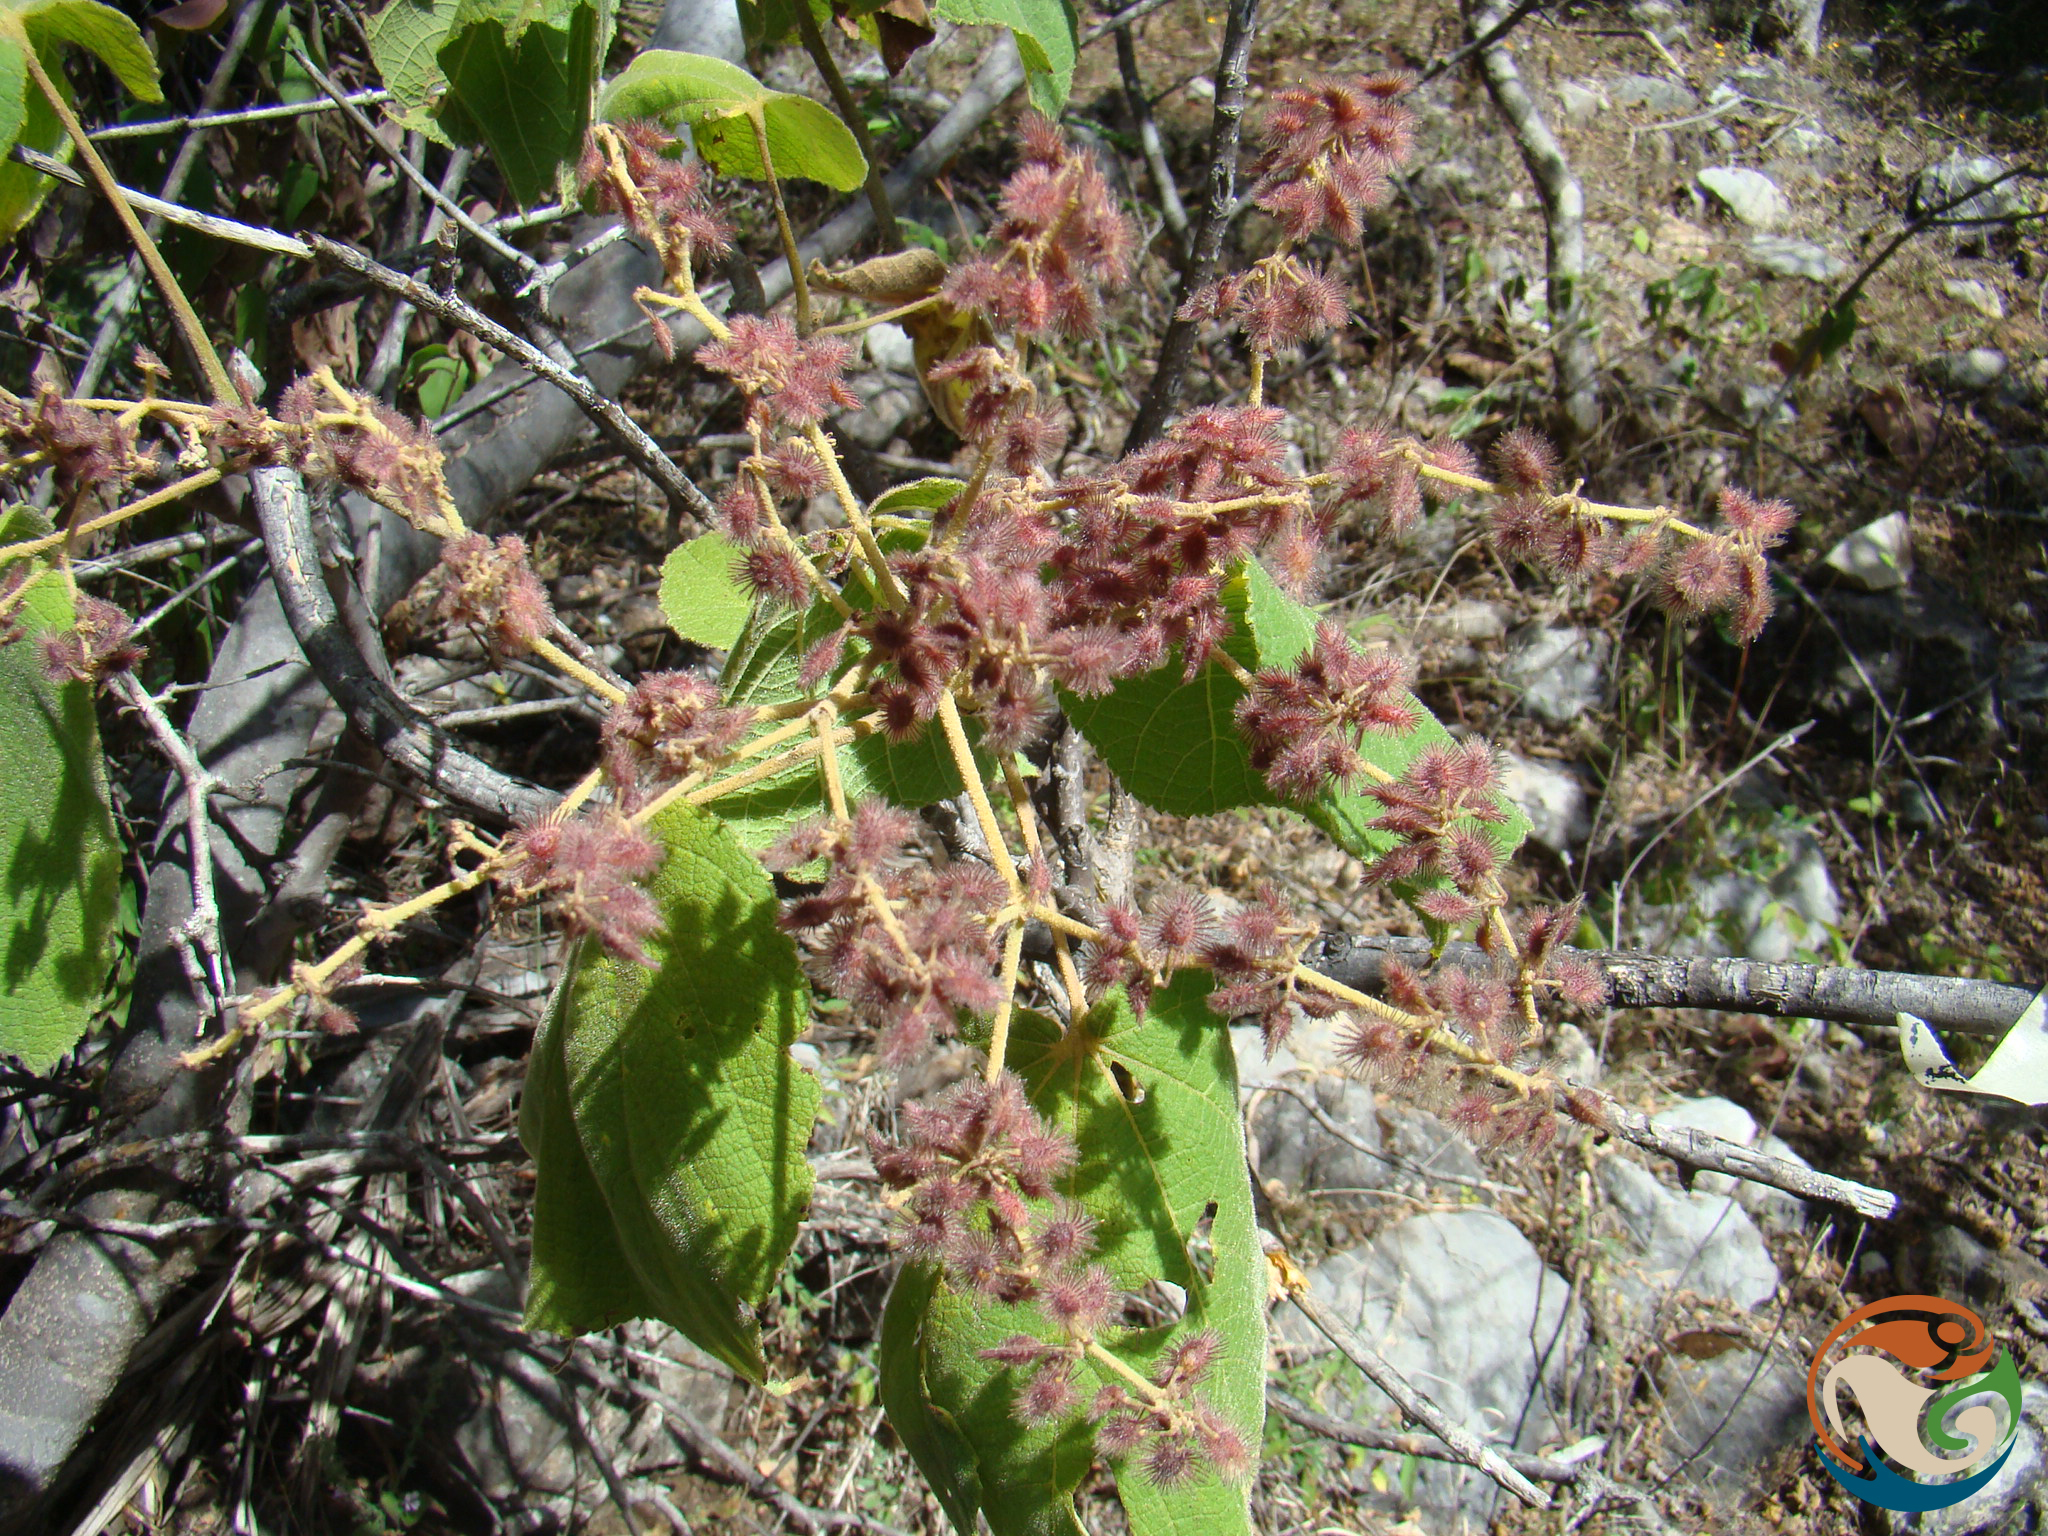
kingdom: Plantae
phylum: Tracheophyta
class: Magnoliopsida
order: Malvales
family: Malvaceae
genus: Heliocarpus
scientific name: Heliocarpus terebinthinaceus
